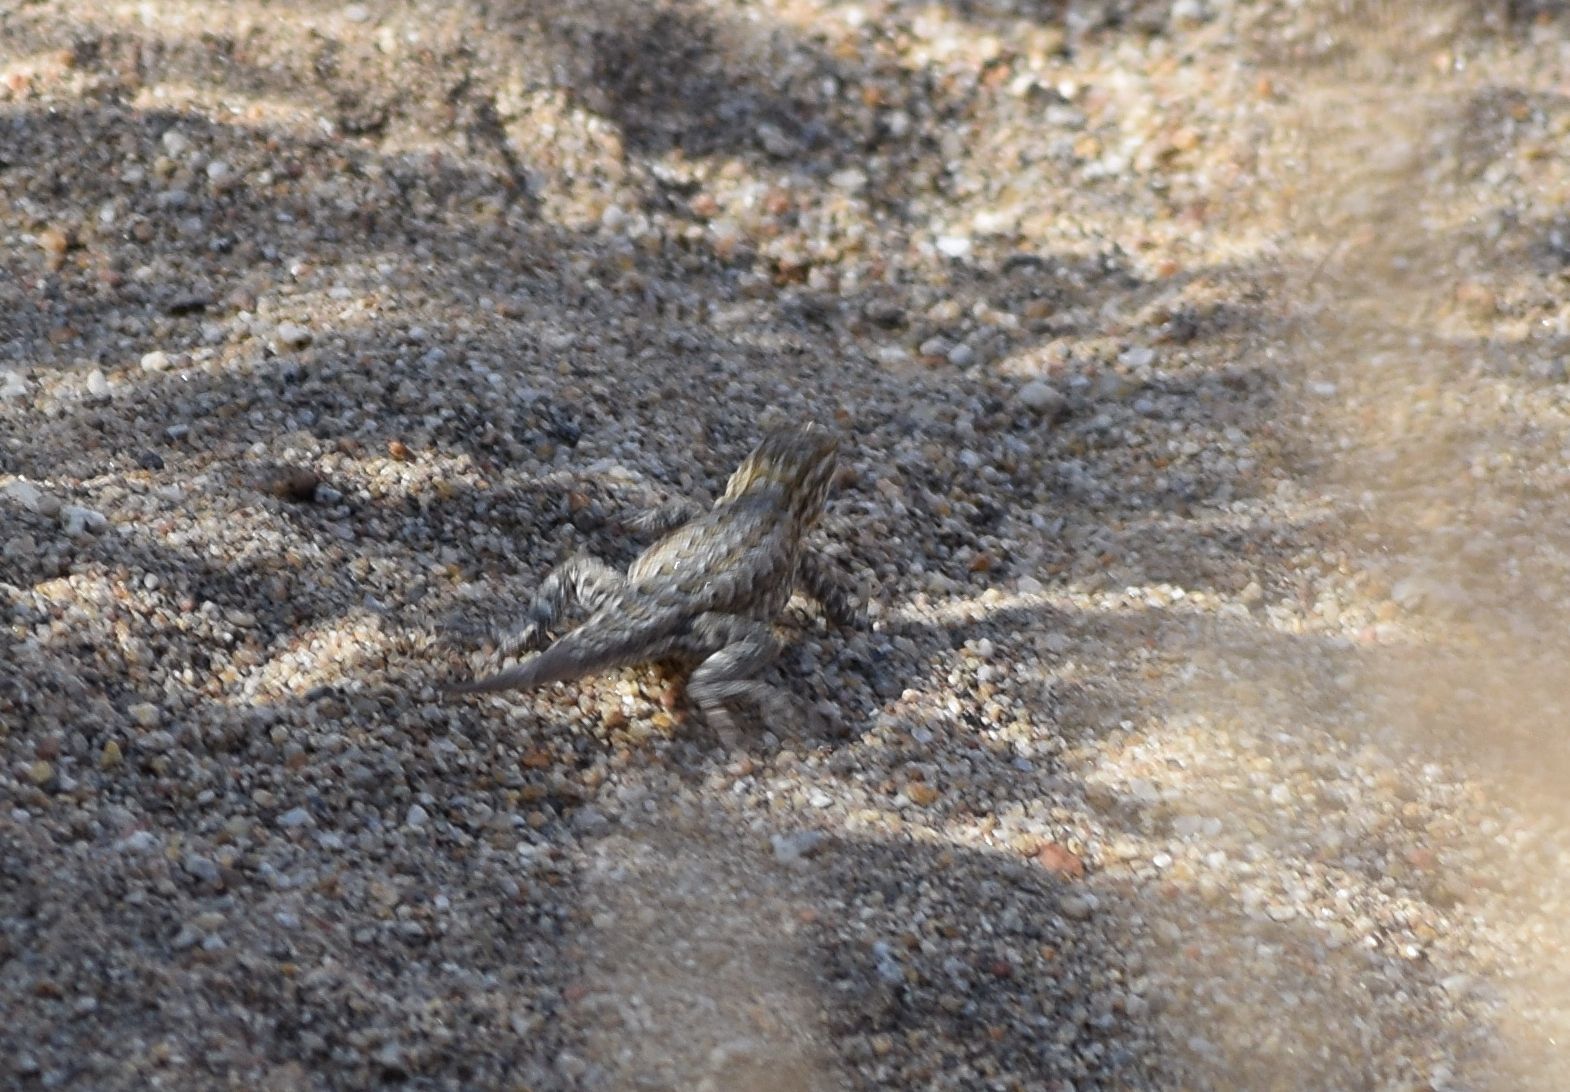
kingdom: Animalia
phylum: Chordata
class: Squamata
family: Phrynosomatidae
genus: Uta
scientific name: Uta stansburiana
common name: Side-blotched lizard
